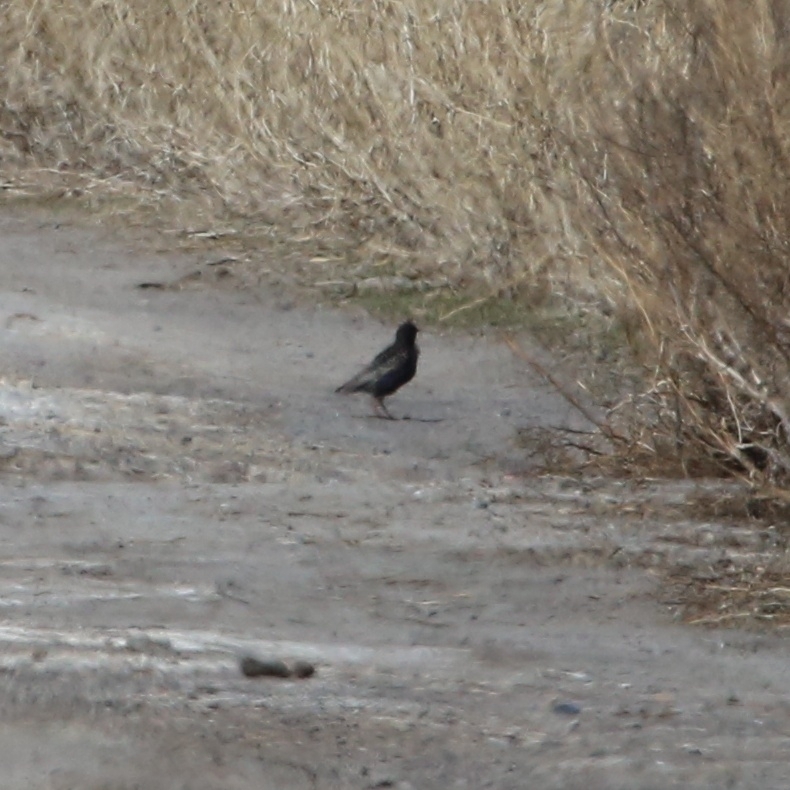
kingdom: Animalia
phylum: Chordata
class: Aves
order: Passeriformes
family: Sturnidae
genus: Sturnus
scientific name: Sturnus vulgaris
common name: Common starling
